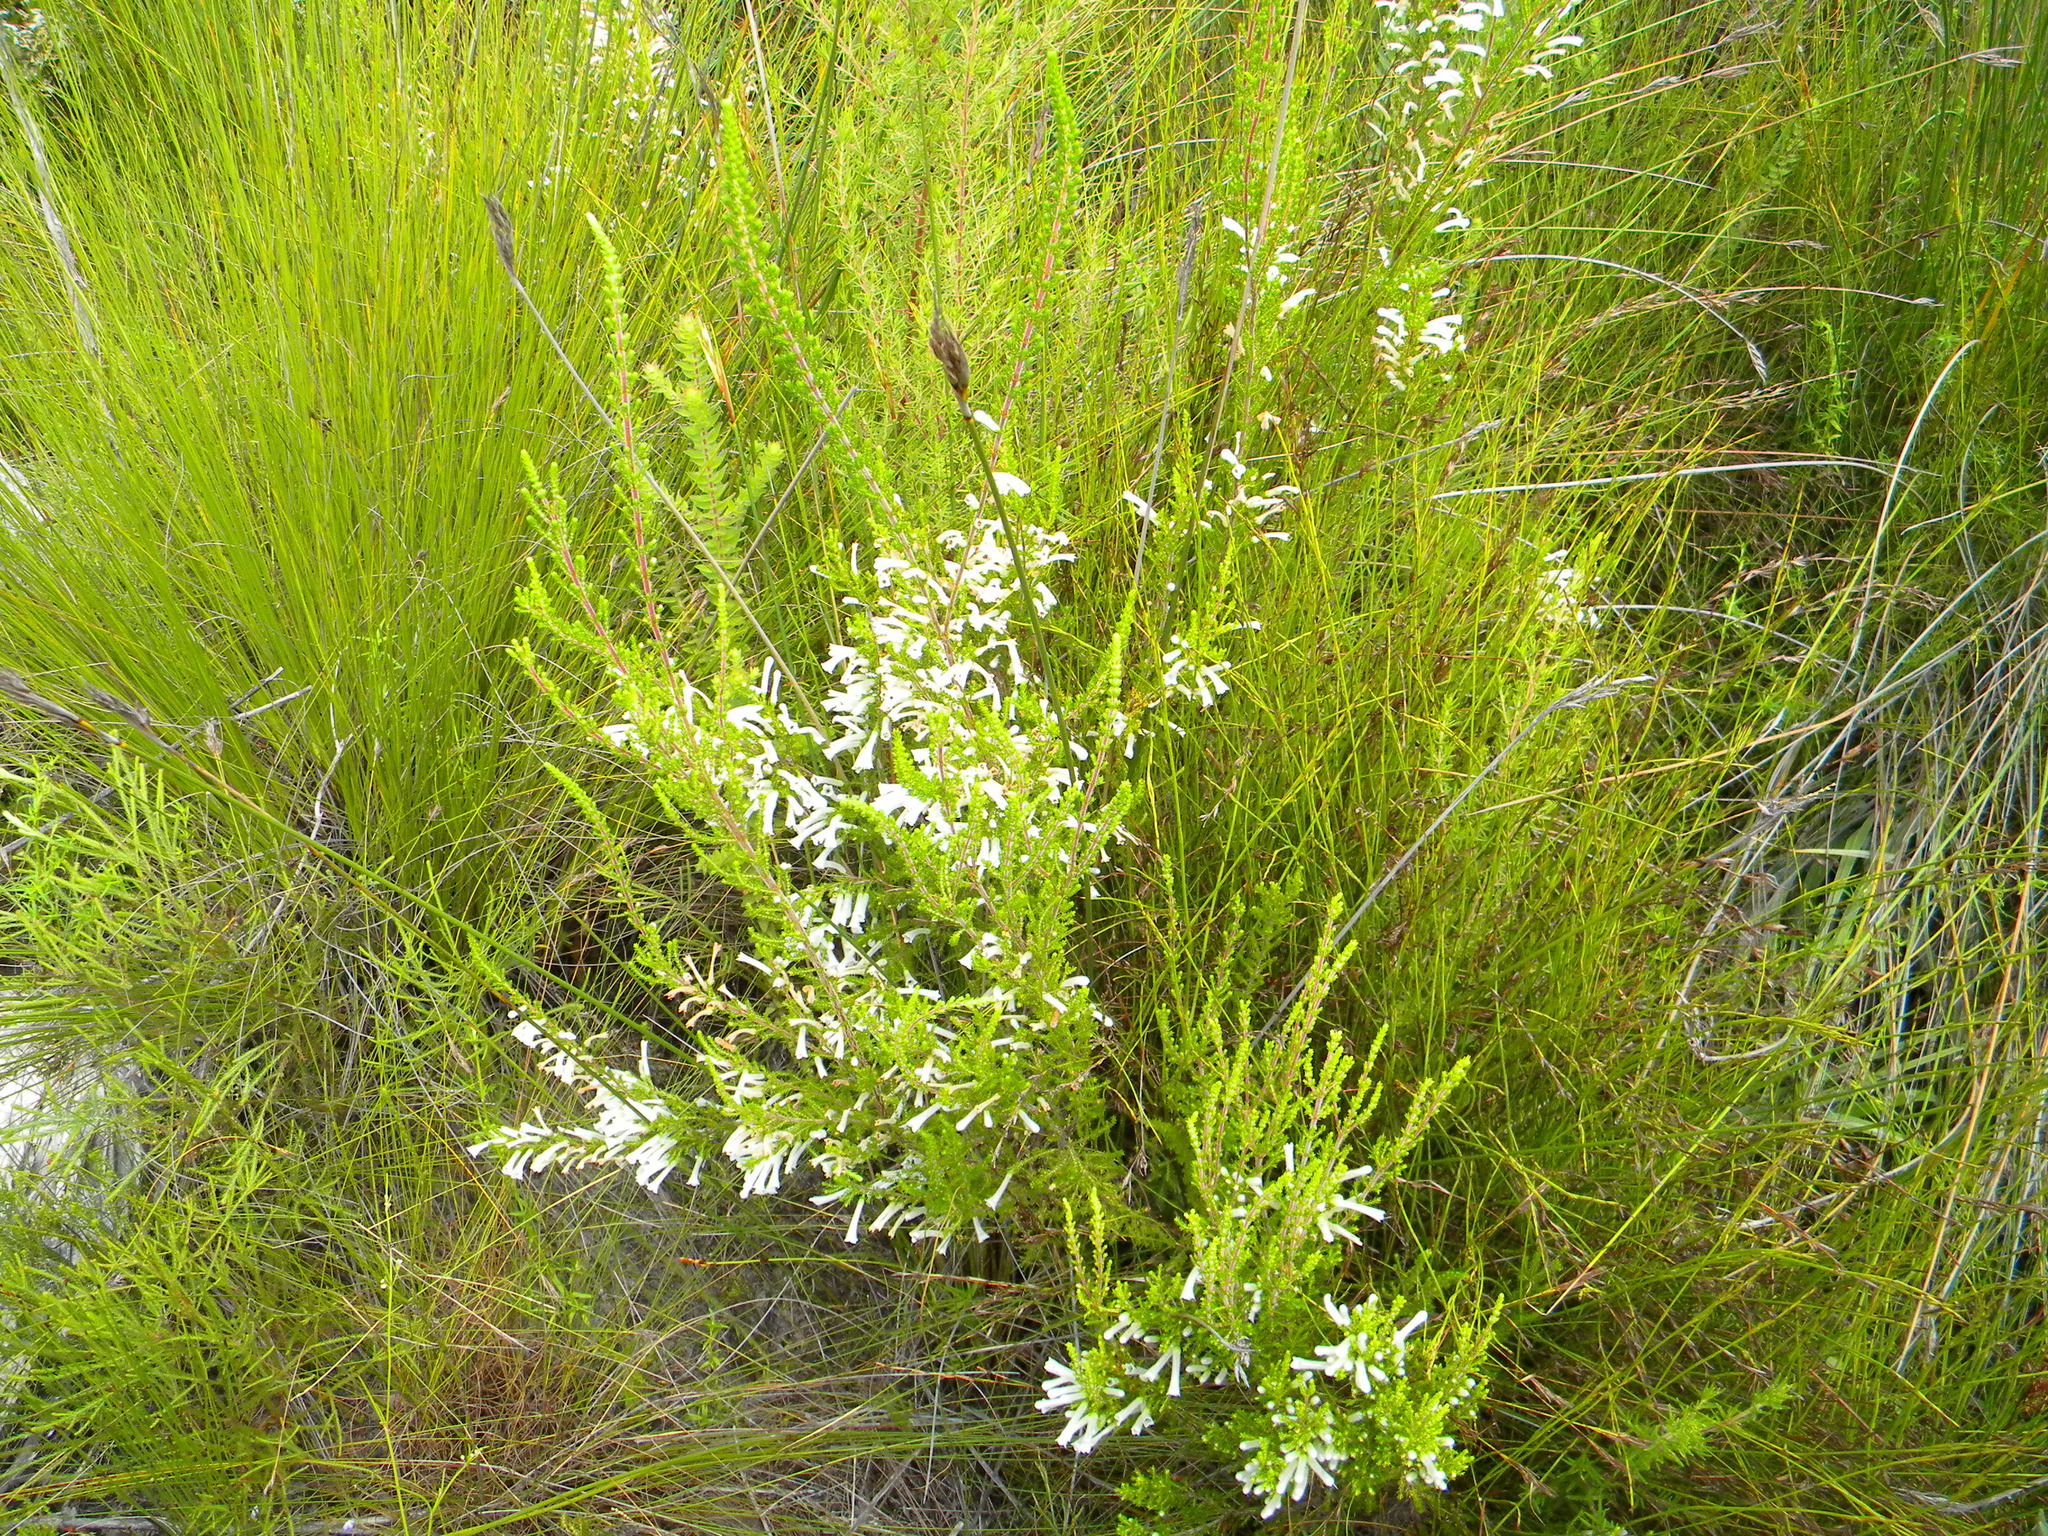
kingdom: Plantae
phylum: Tracheophyta
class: Magnoliopsida
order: Ericales
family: Ericaceae
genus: Erica
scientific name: Erica perspicua
